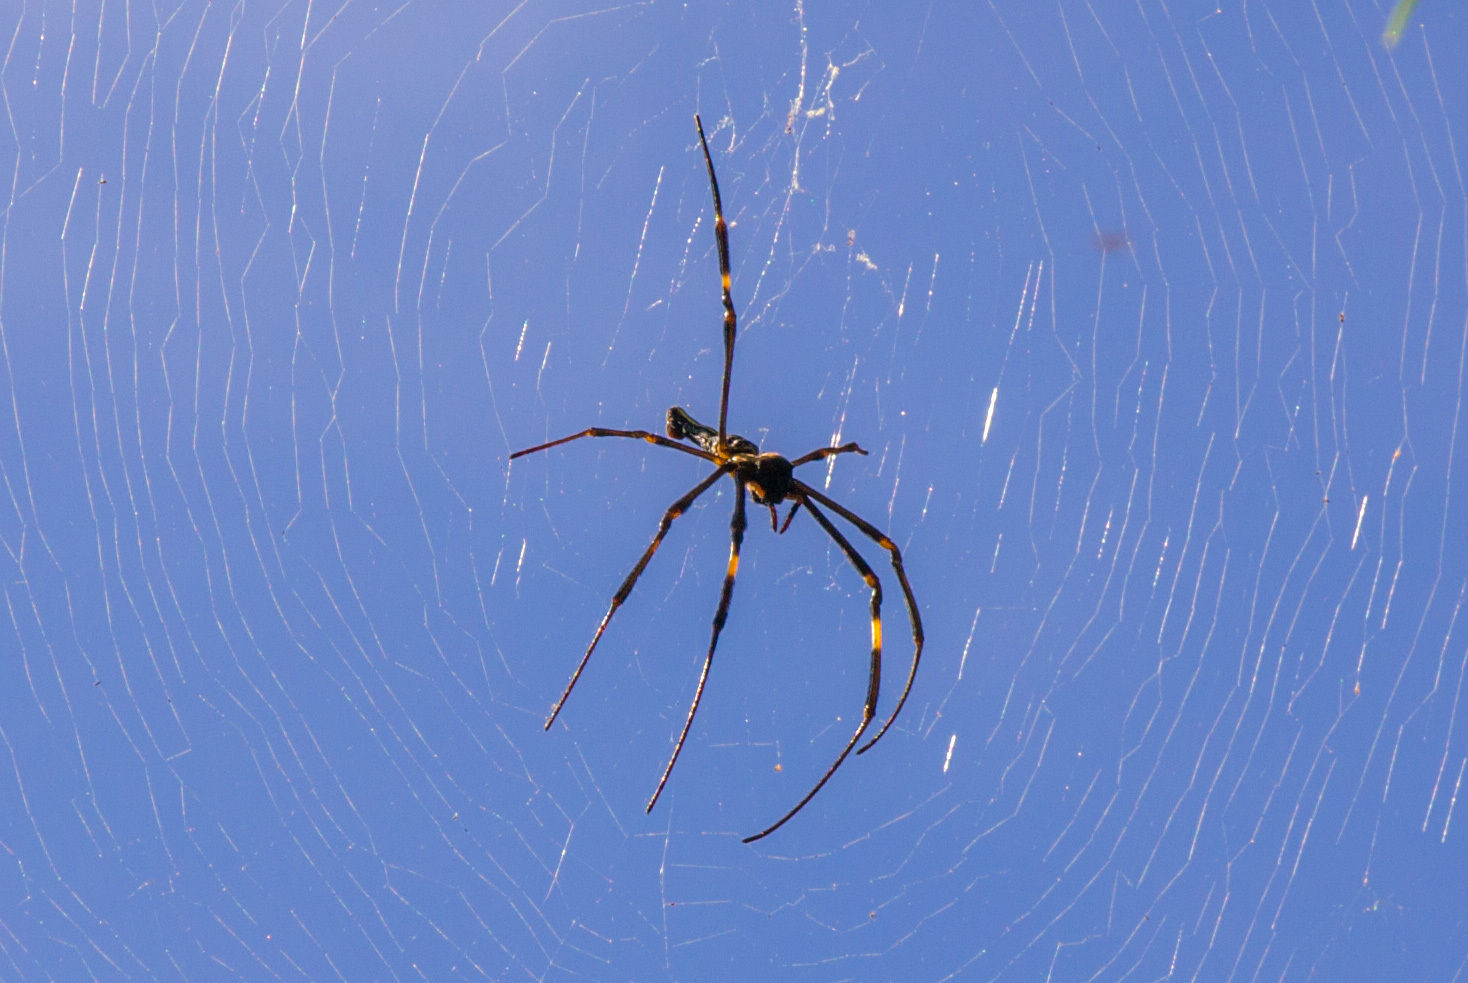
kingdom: Animalia
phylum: Arthropoda
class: Arachnida
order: Araneae
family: Araneidae
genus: Nephila
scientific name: Nephila pilipes
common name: Giant golden orb weaver
